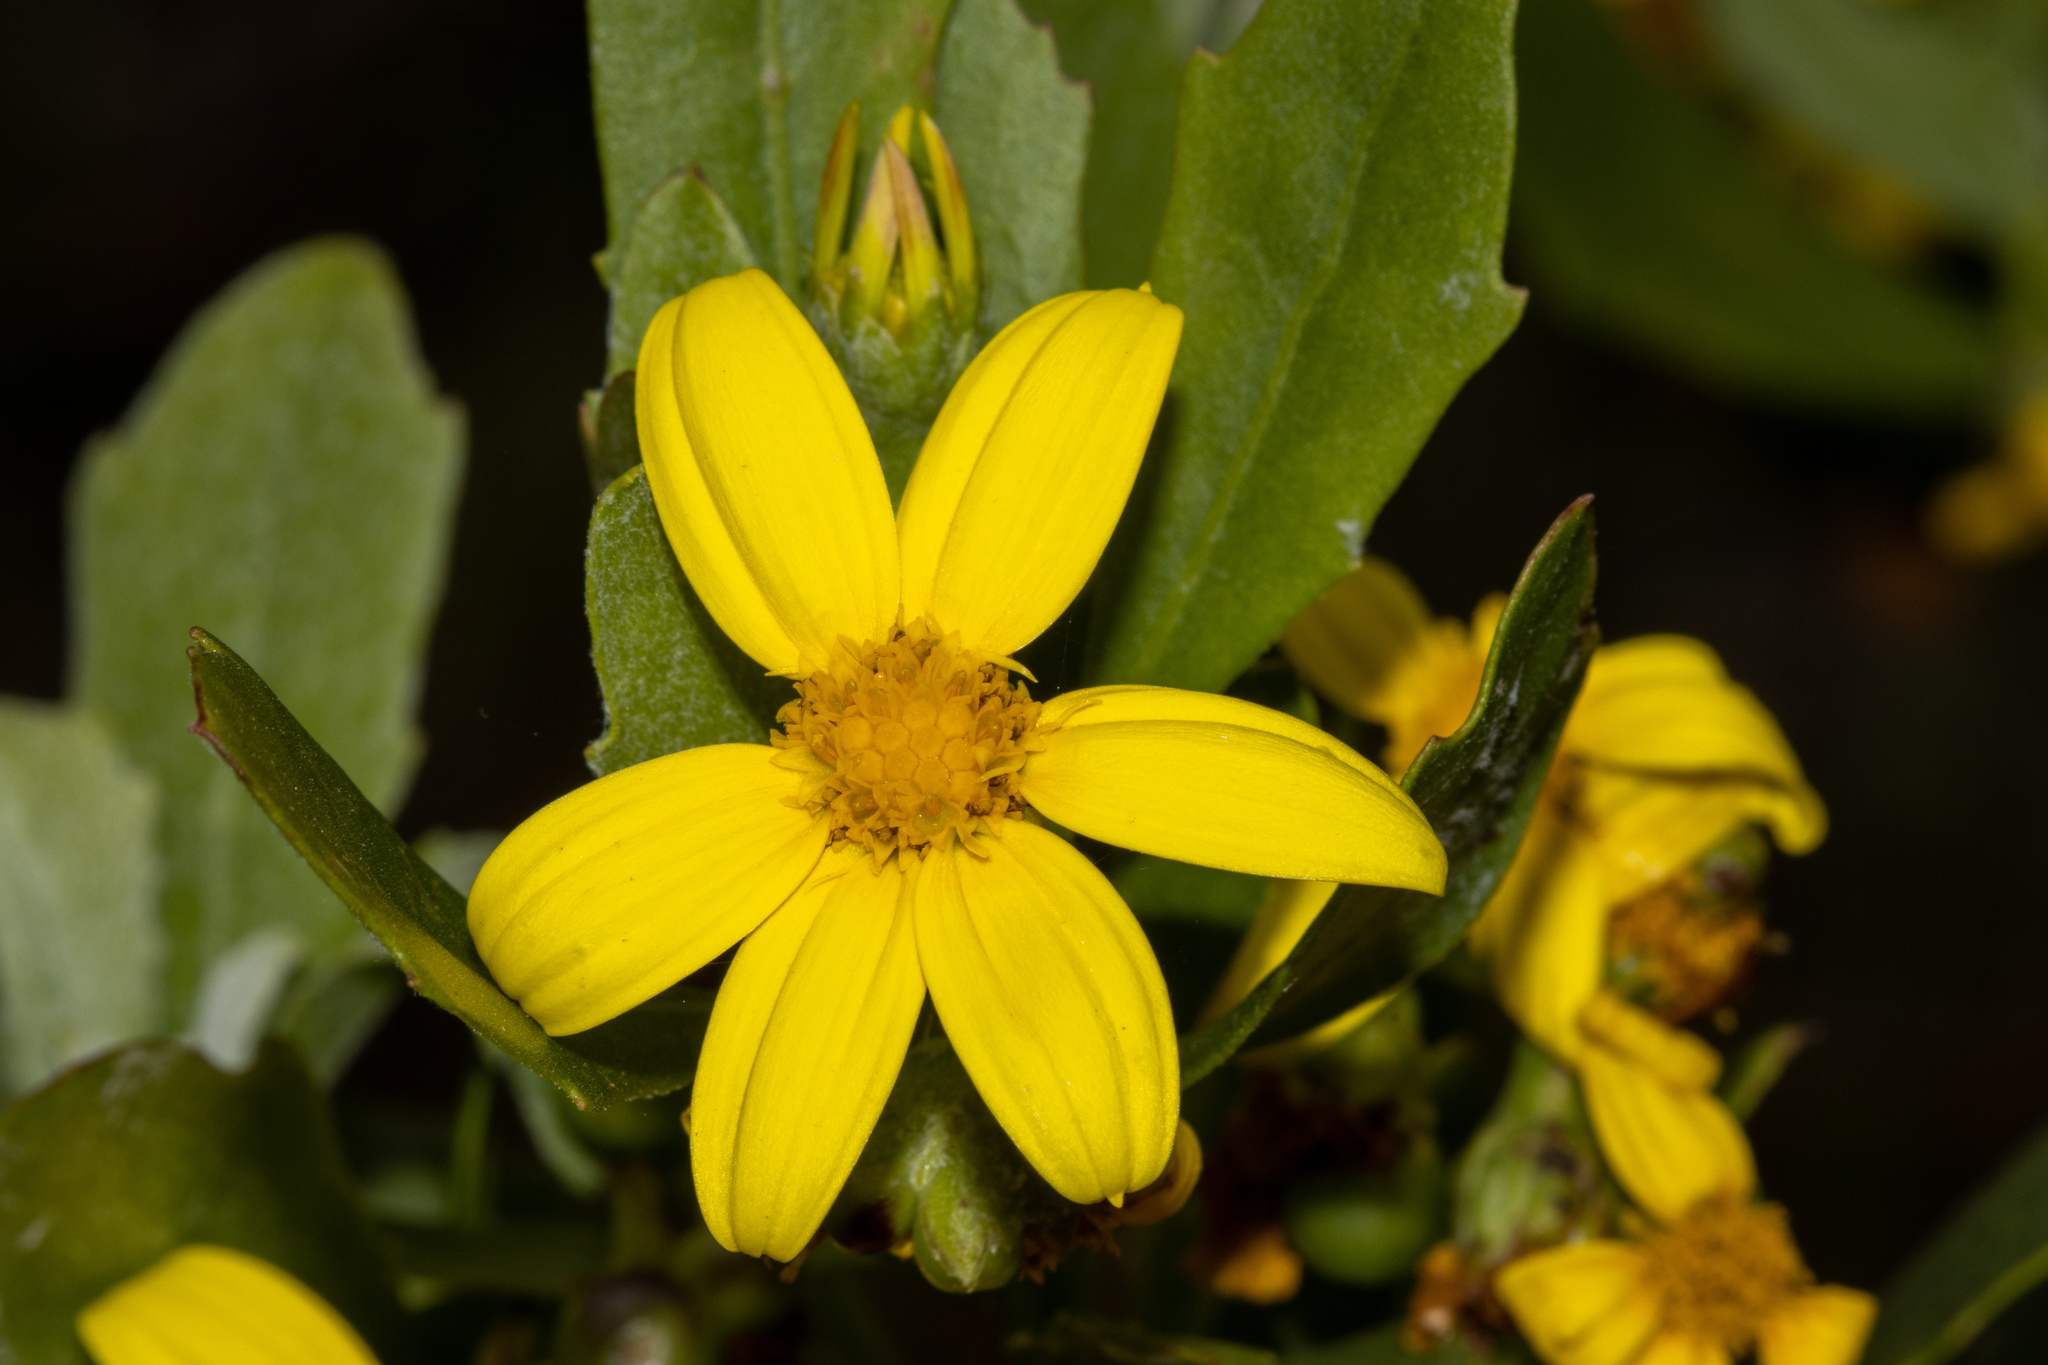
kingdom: Plantae
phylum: Tracheophyta
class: Magnoliopsida
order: Asterales
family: Asteraceae
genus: Osteospermum
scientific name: Osteospermum moniliferum
